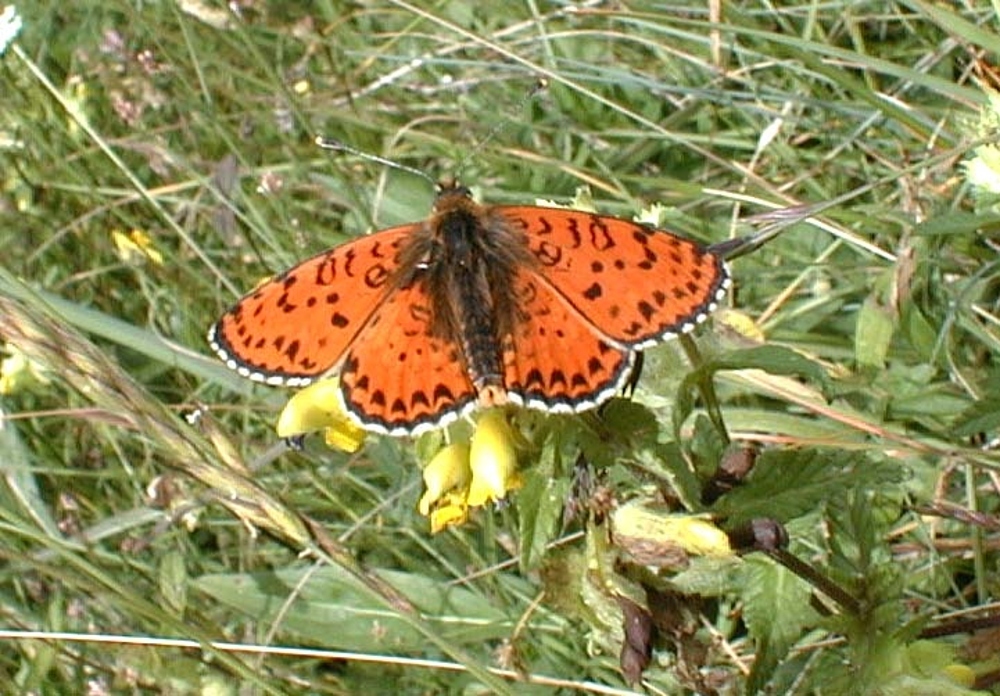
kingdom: Animalia
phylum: Arthropoda
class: Insecta
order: Lepidoptera
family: Nymphalidae
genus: Melitaea
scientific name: Melitaea didyma
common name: Spotted fritillary
